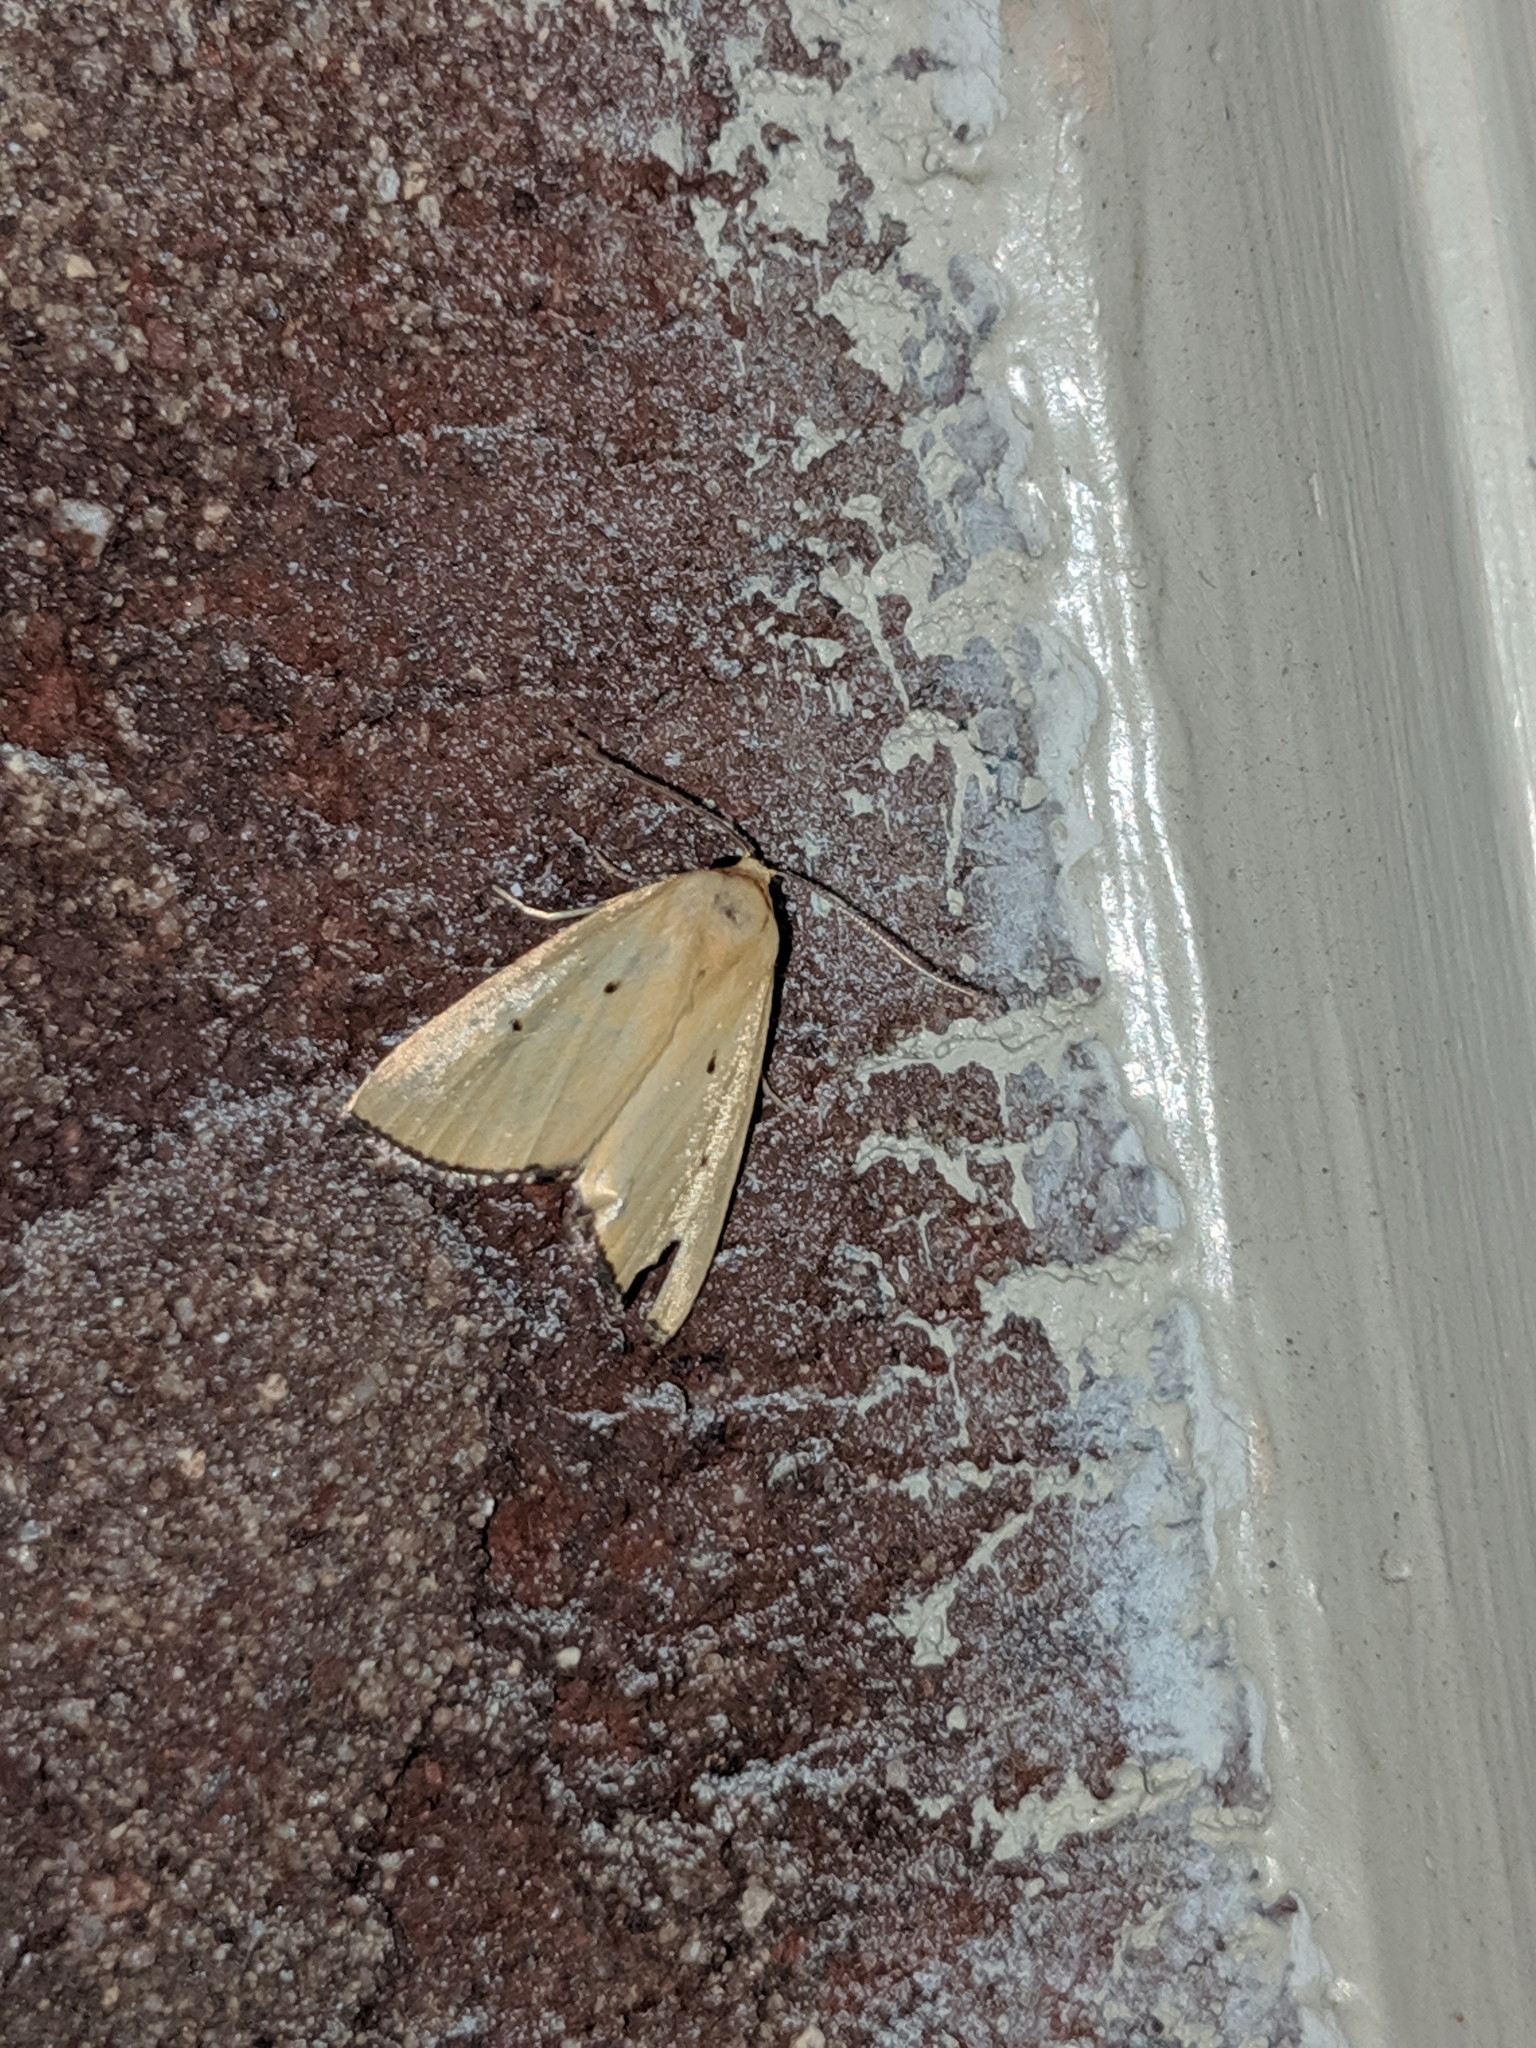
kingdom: Animalia
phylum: Arthropoda
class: Insecta
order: Lepidoptera
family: Noctuidae
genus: Marimatha
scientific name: Marimatha nigrofimbria
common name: Black-bordered lemon moth
